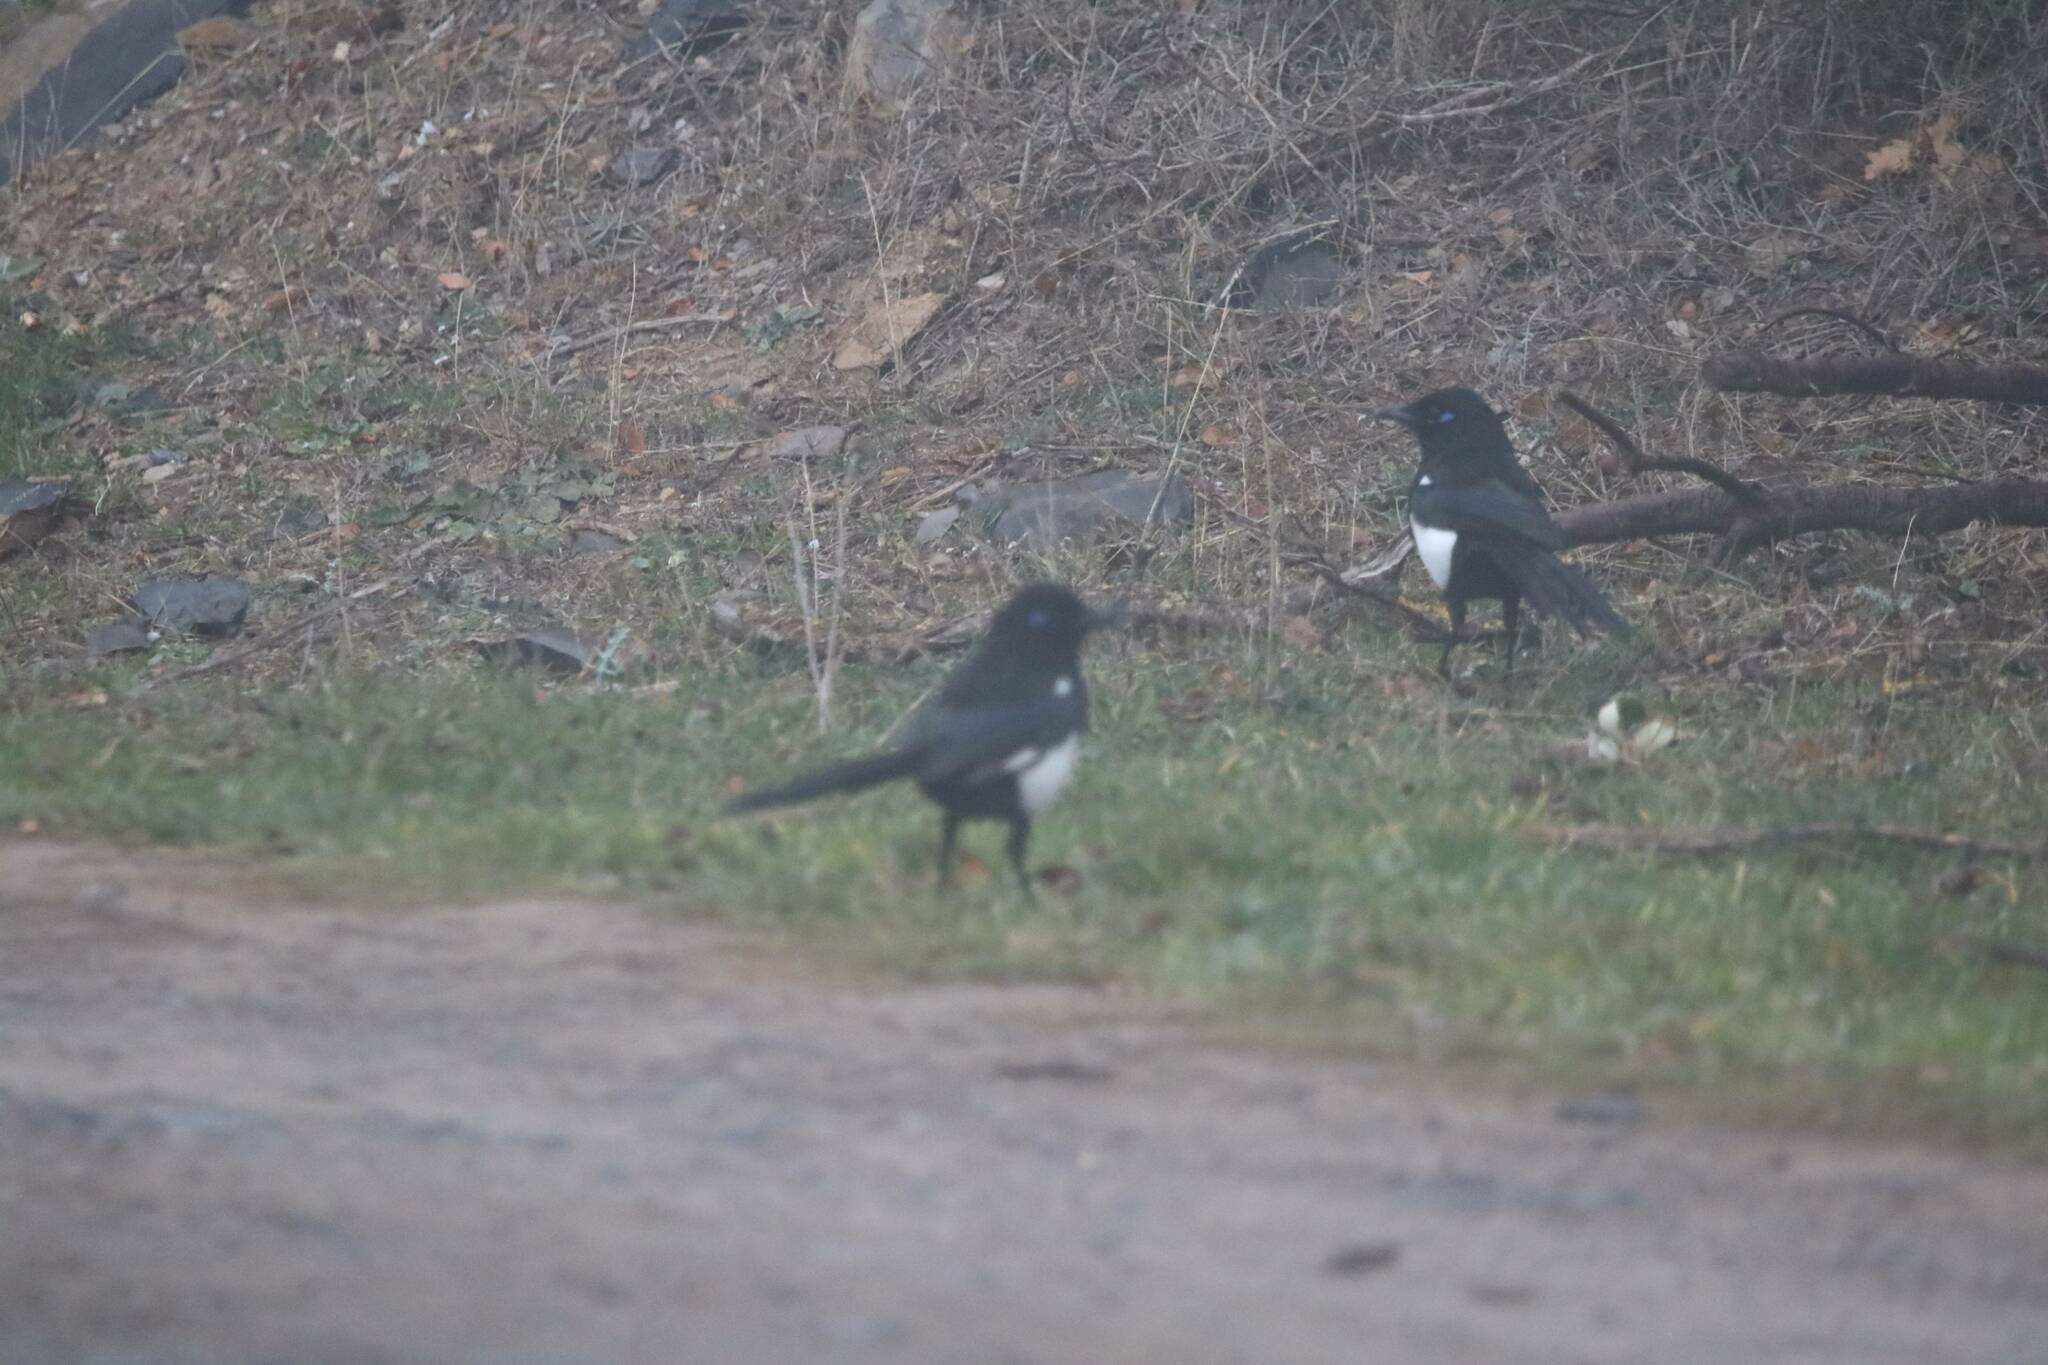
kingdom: Animalia
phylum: Chordata
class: Aves
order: Passeriformes
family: Corvidae
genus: Pica
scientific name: Pica mauritanica
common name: Maghreb magpie
